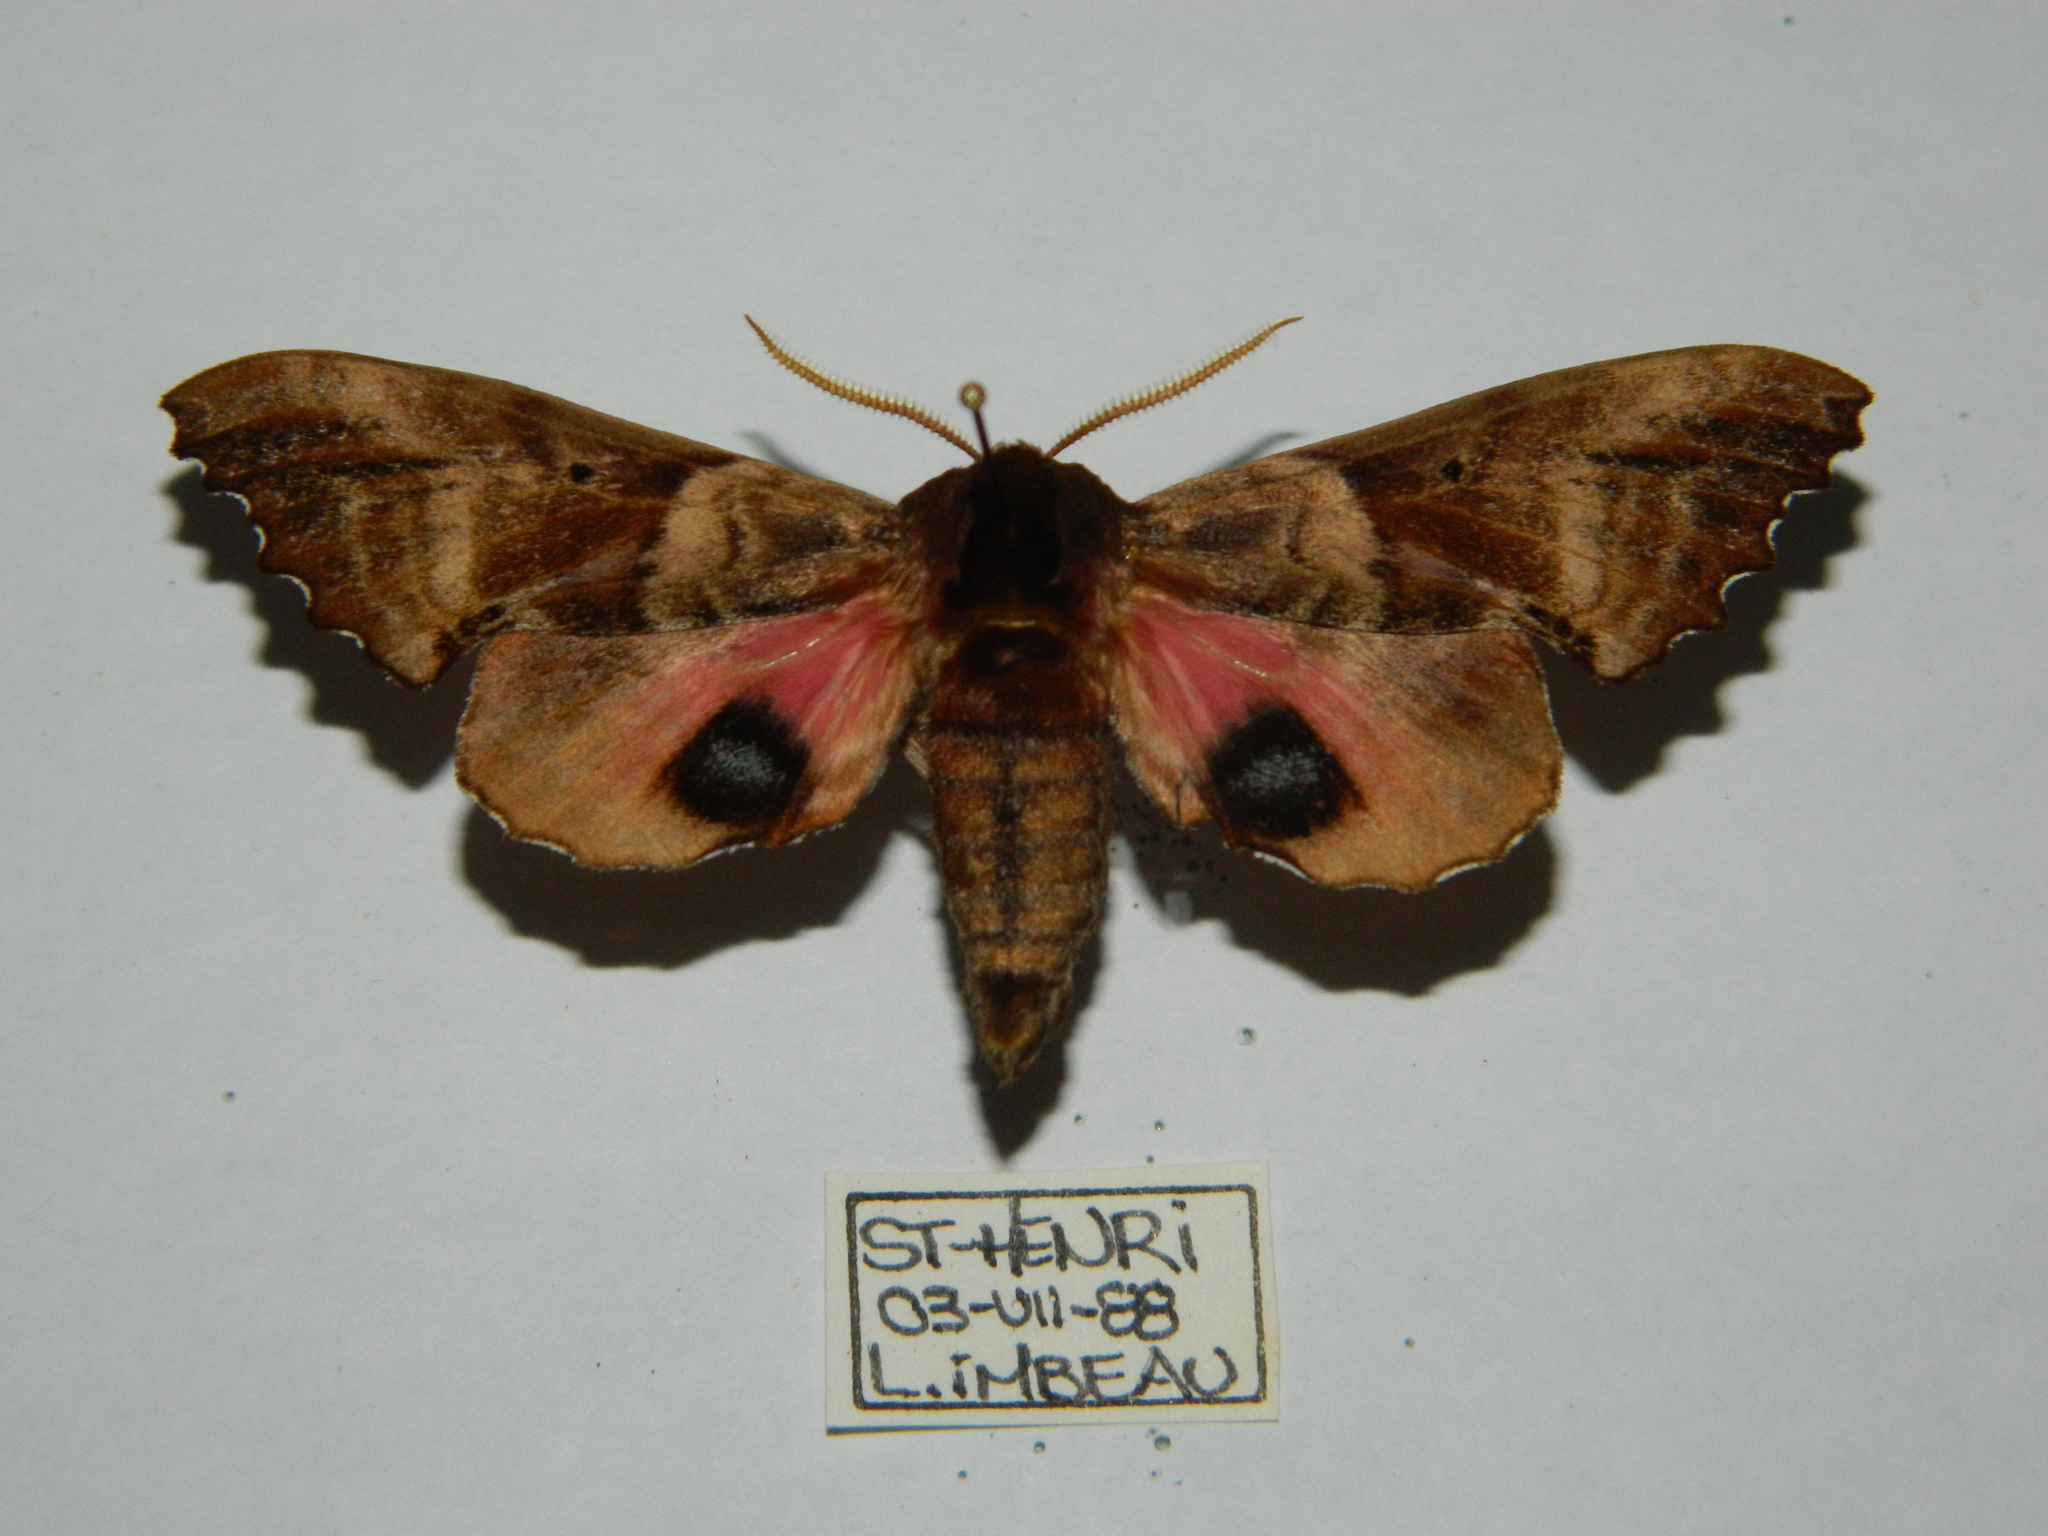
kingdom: Animalia
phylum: Arthropoda
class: Insecta
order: Lepidoptera
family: Sphingidae
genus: Paonias
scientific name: Paonias excaecata
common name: Blind-eyed sphinx
